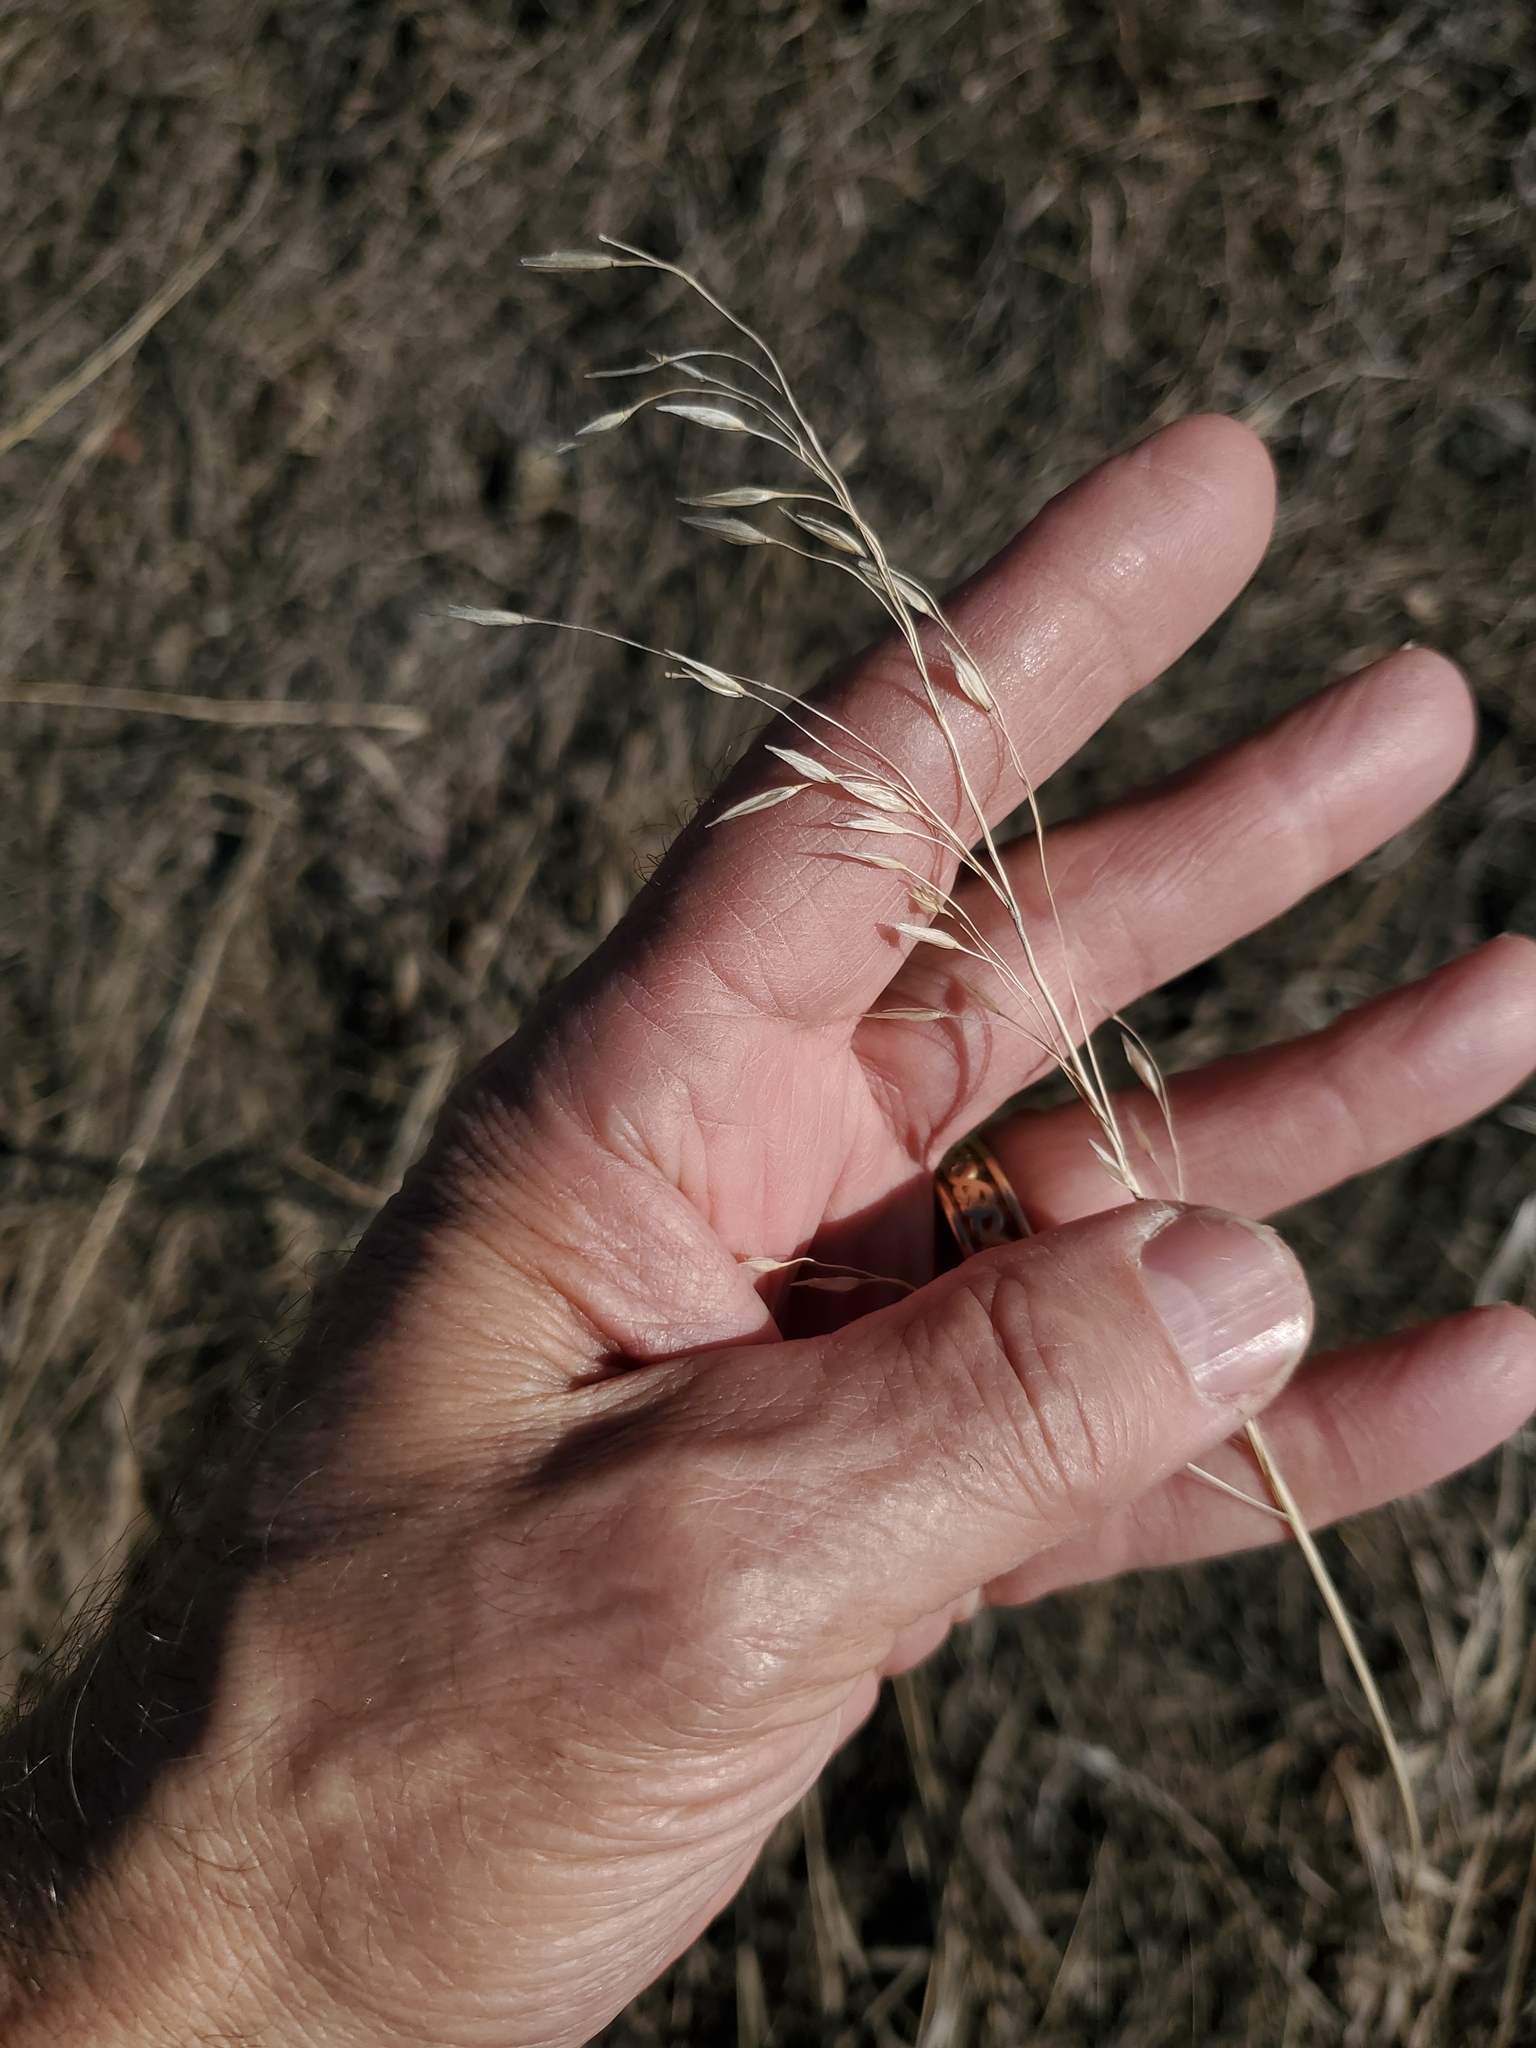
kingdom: Plantae
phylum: Tracheophyta
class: Liliopsida
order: Poales
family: Poaceae
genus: Bromus
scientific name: Bromus inermis
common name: Smooth brome
